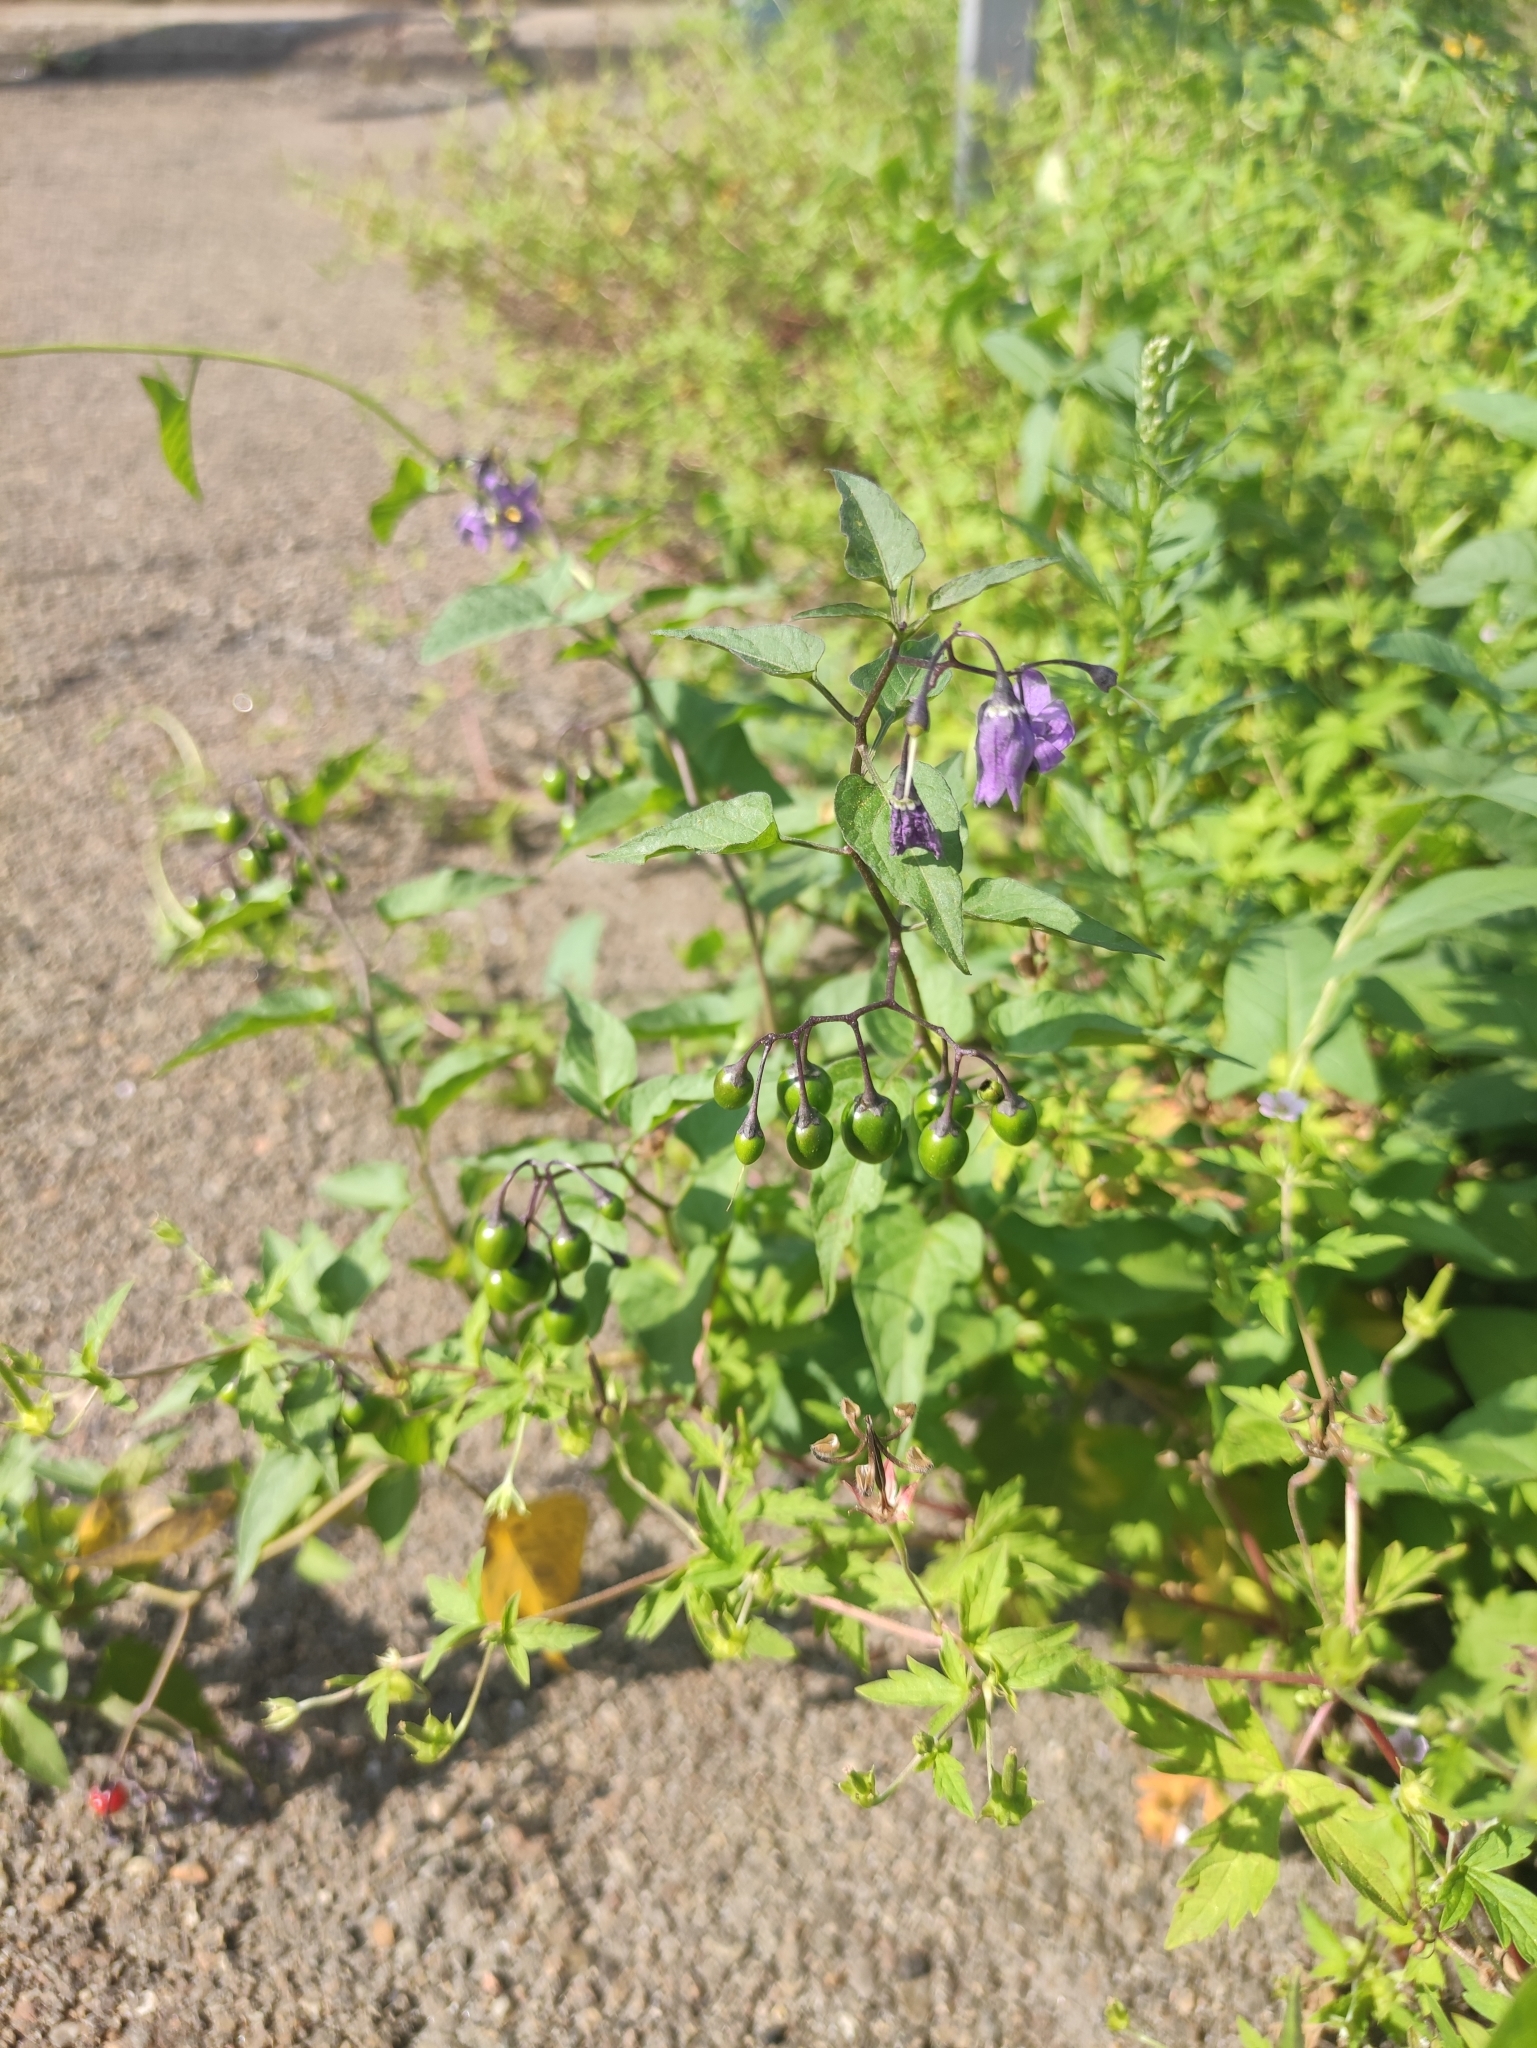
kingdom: Plantae
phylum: Tracheophyta
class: Magnoliopsida
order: Solanales
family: Solanaceae
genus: Solanum
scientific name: Solanum dulcamara
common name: Climbing nightshade
